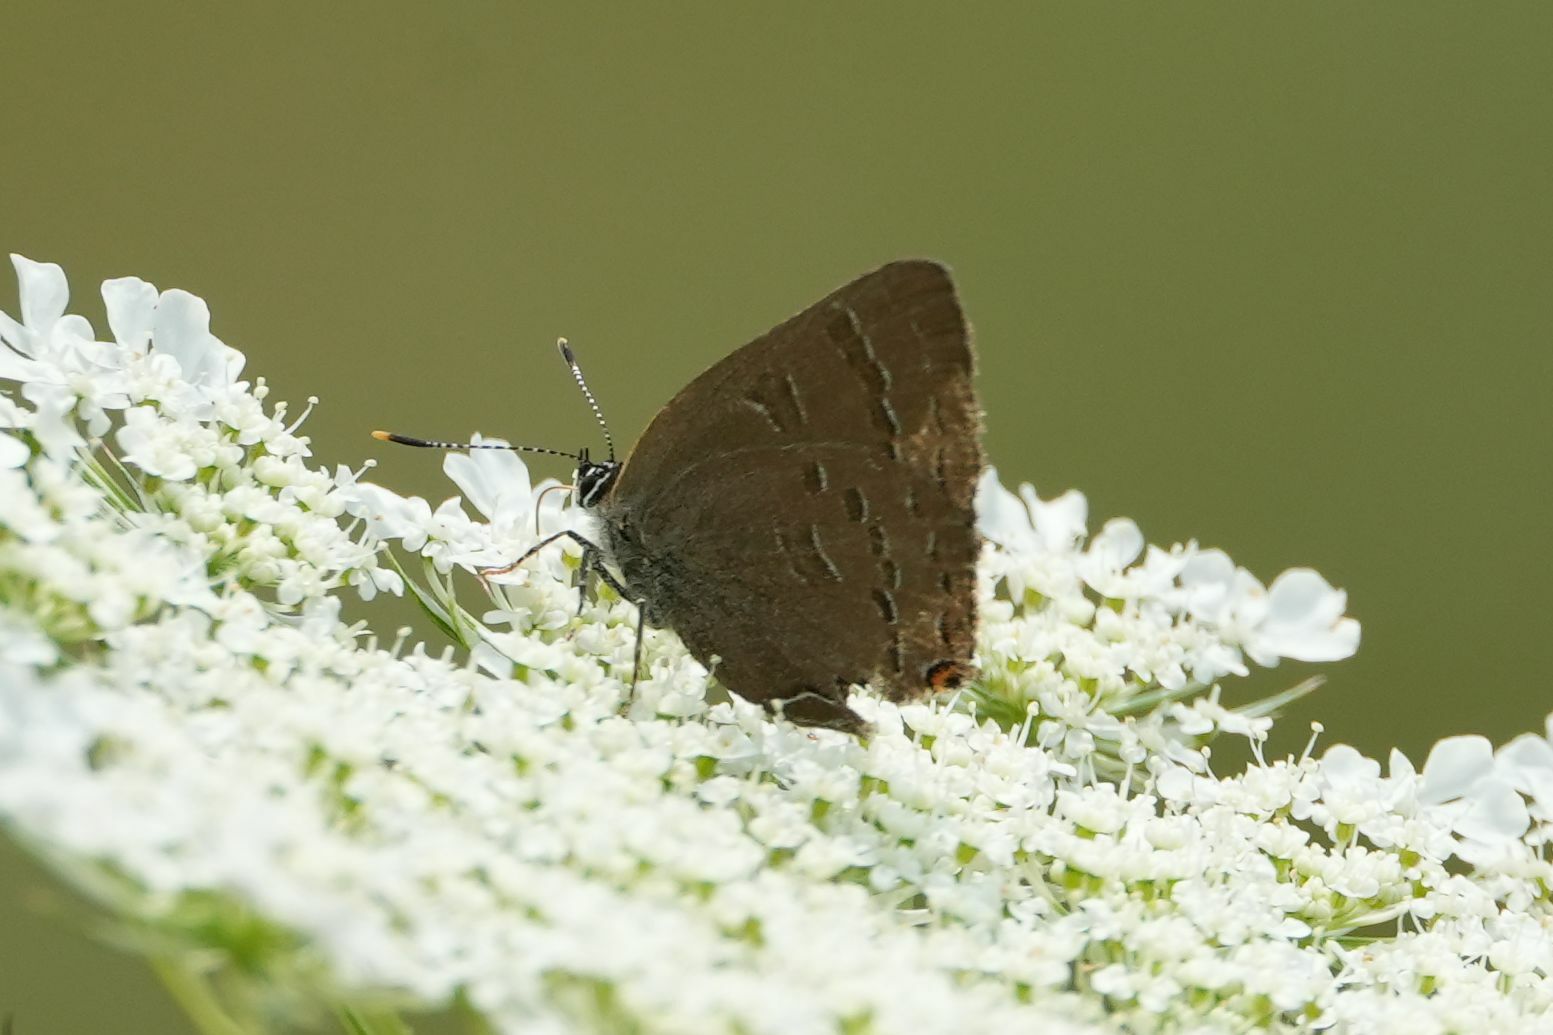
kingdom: Animalia
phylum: Arthropoda
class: Insecta
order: Lepidoptera
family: Lycaenidae
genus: Satyrium
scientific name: Satyrium calanus
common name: Banded hairstreak
